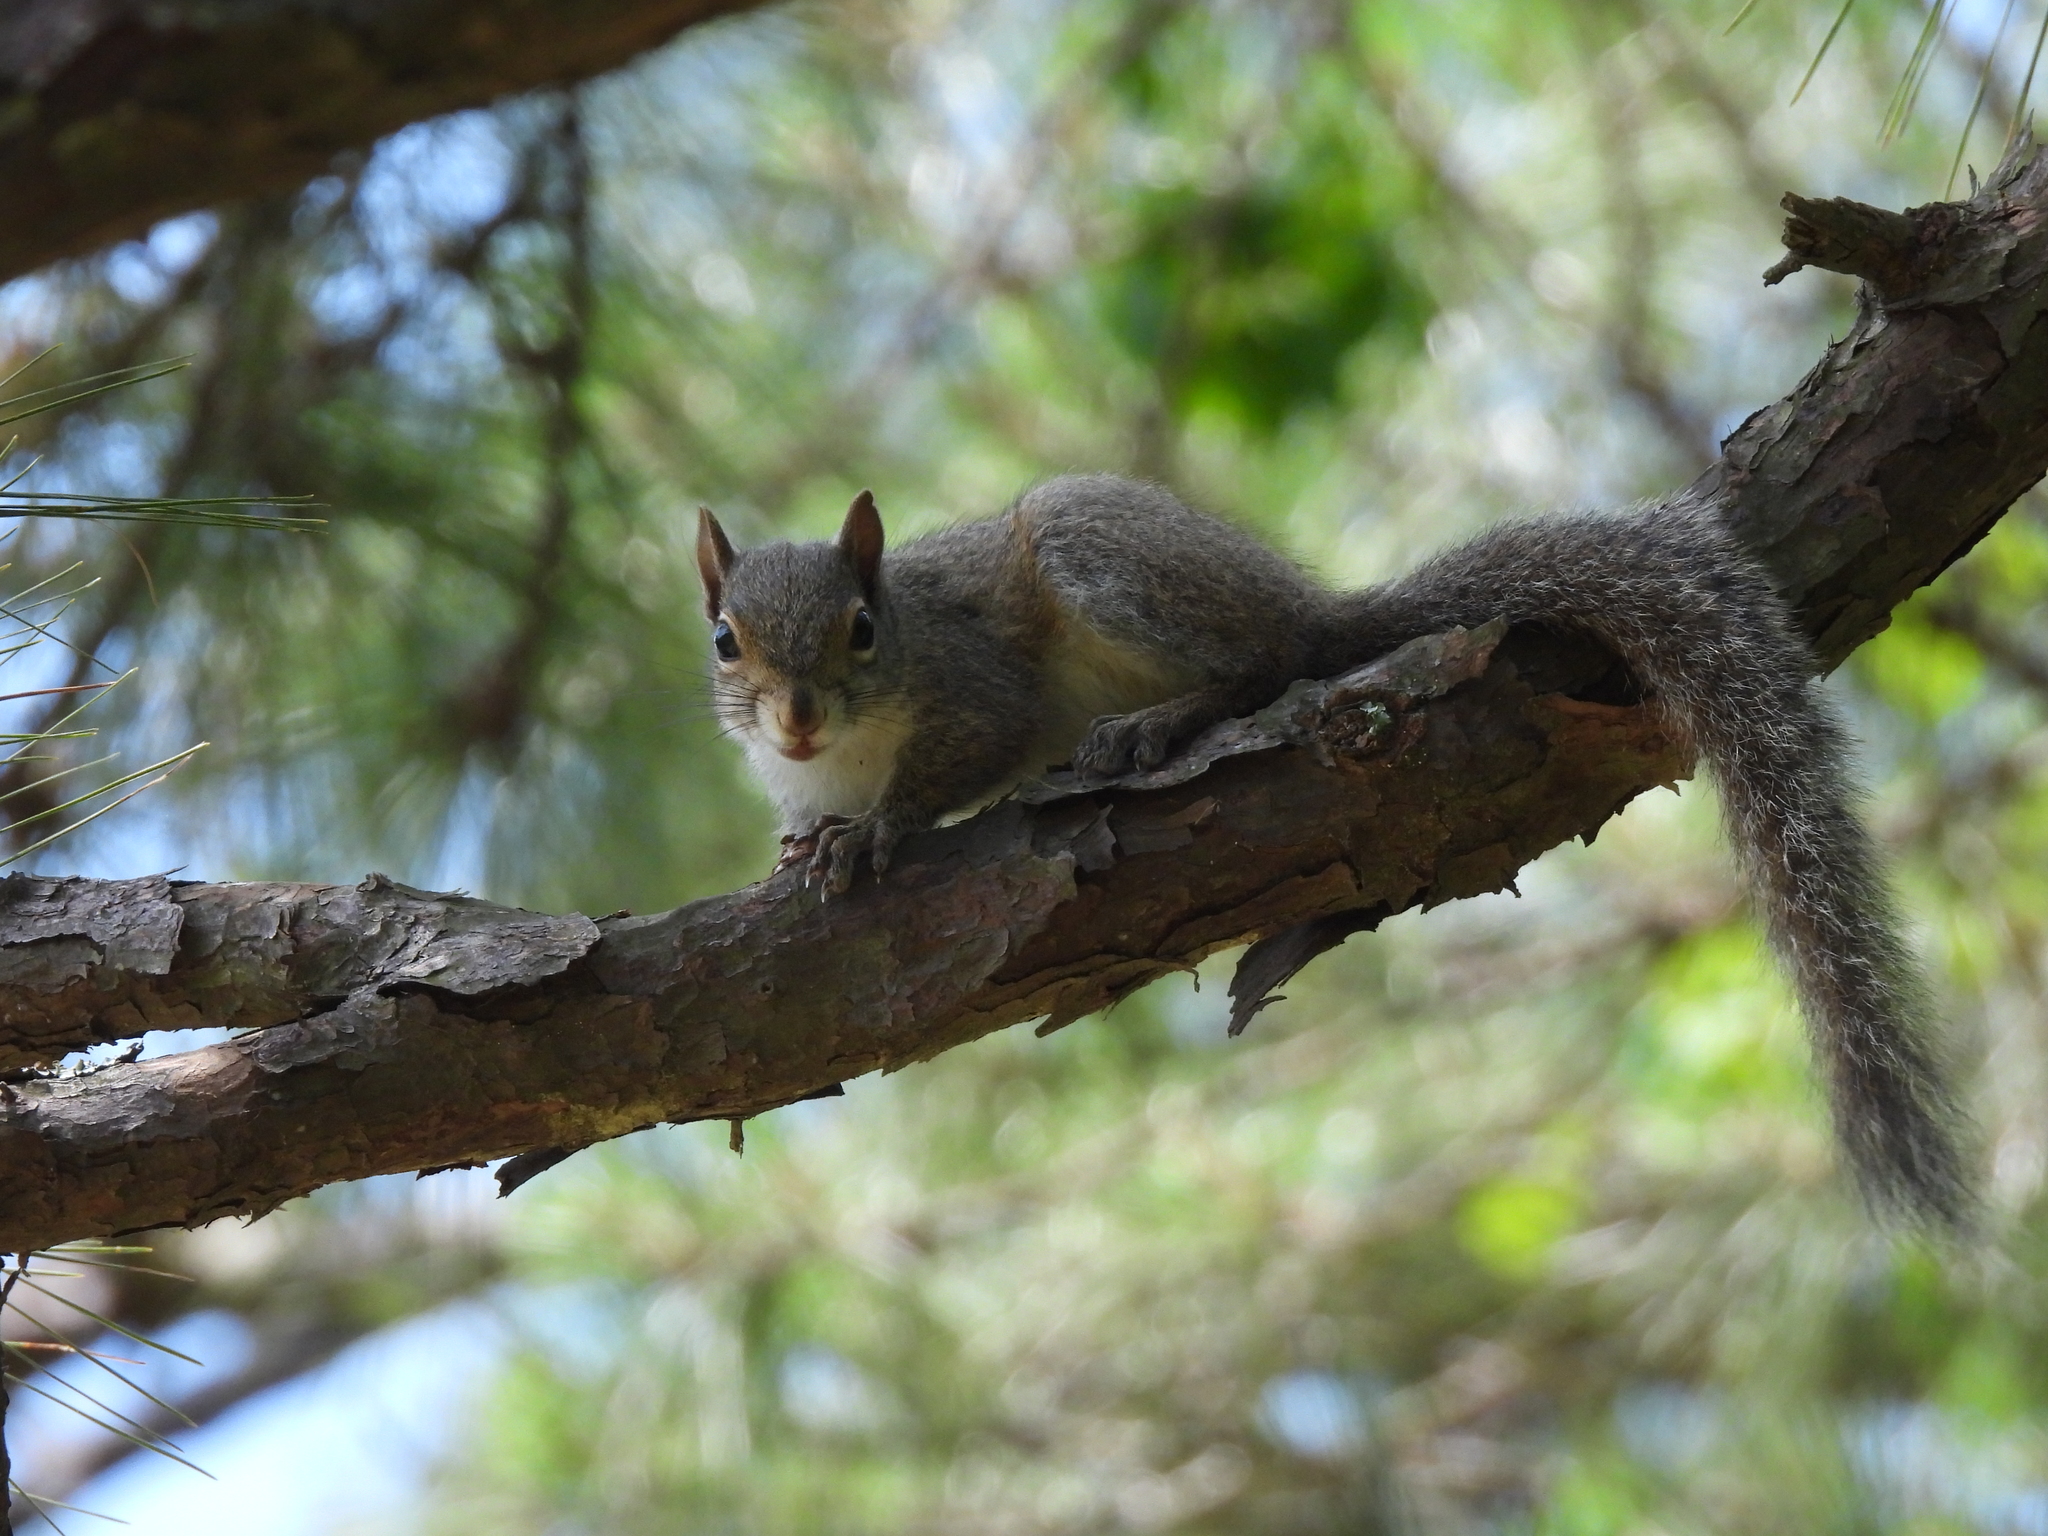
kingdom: Animalia
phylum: Chordata
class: Mammalia
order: Rodentia
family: Sciuridae
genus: Sciurus
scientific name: Sciurus carolinensis
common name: Eastern gray squirrel
